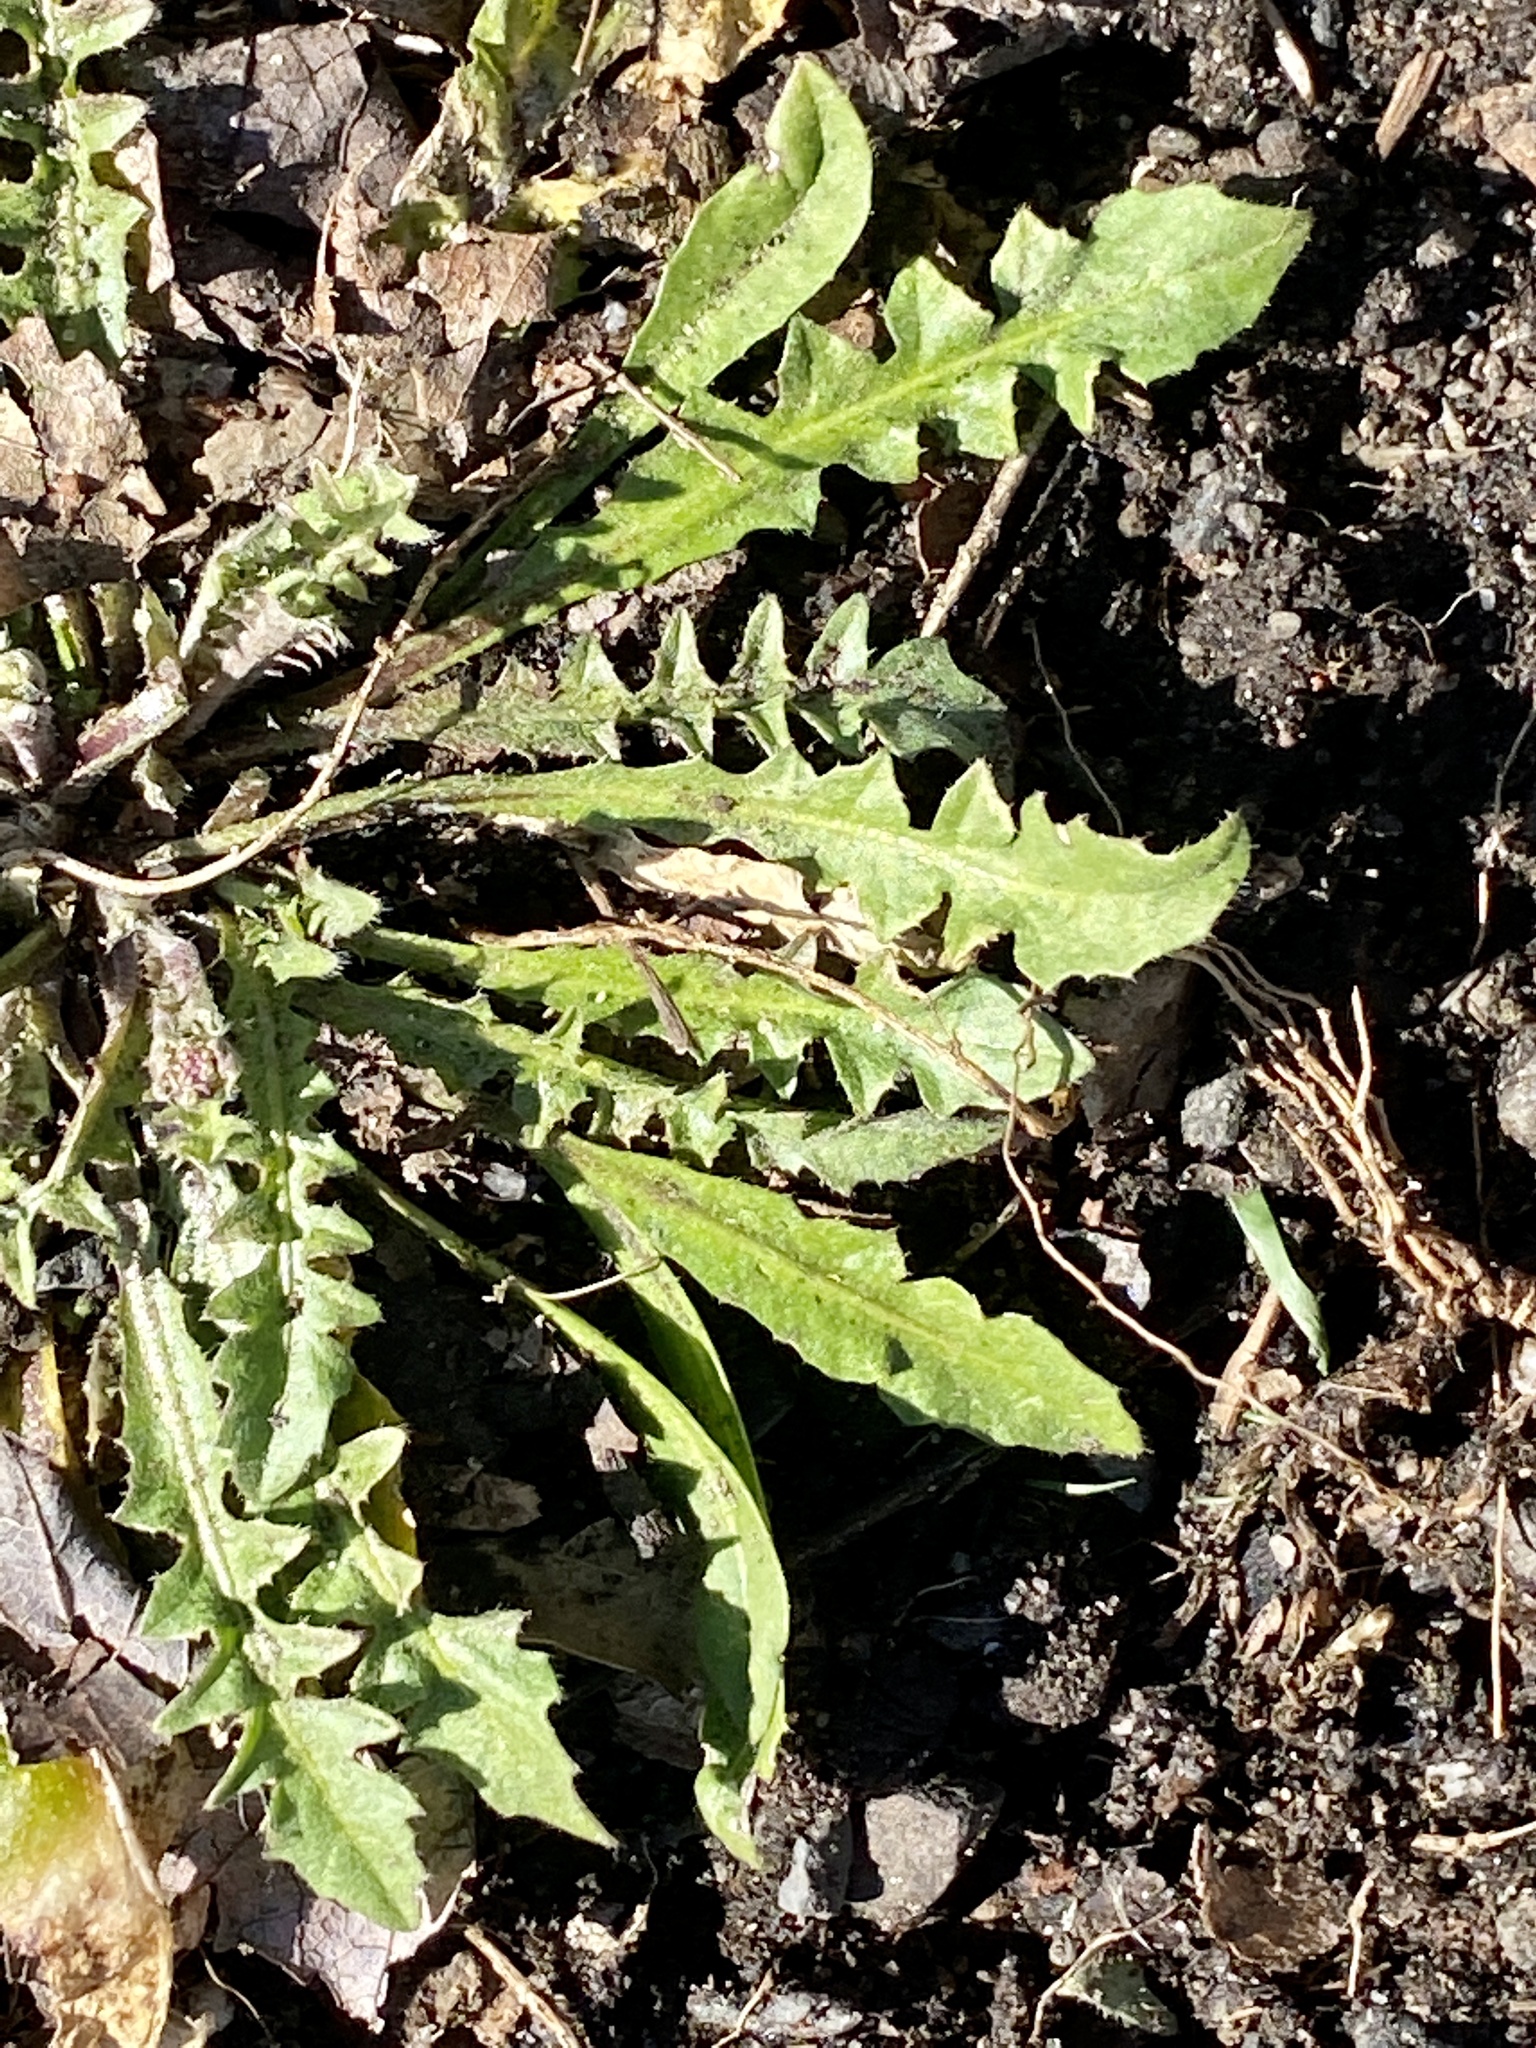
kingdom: Plantae
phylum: Tracheophyta
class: Magnoliopsida
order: Brassicales
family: Brassicaceae
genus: Capsella
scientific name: Capsella bursa-pastoris
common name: Shepherd's purse
